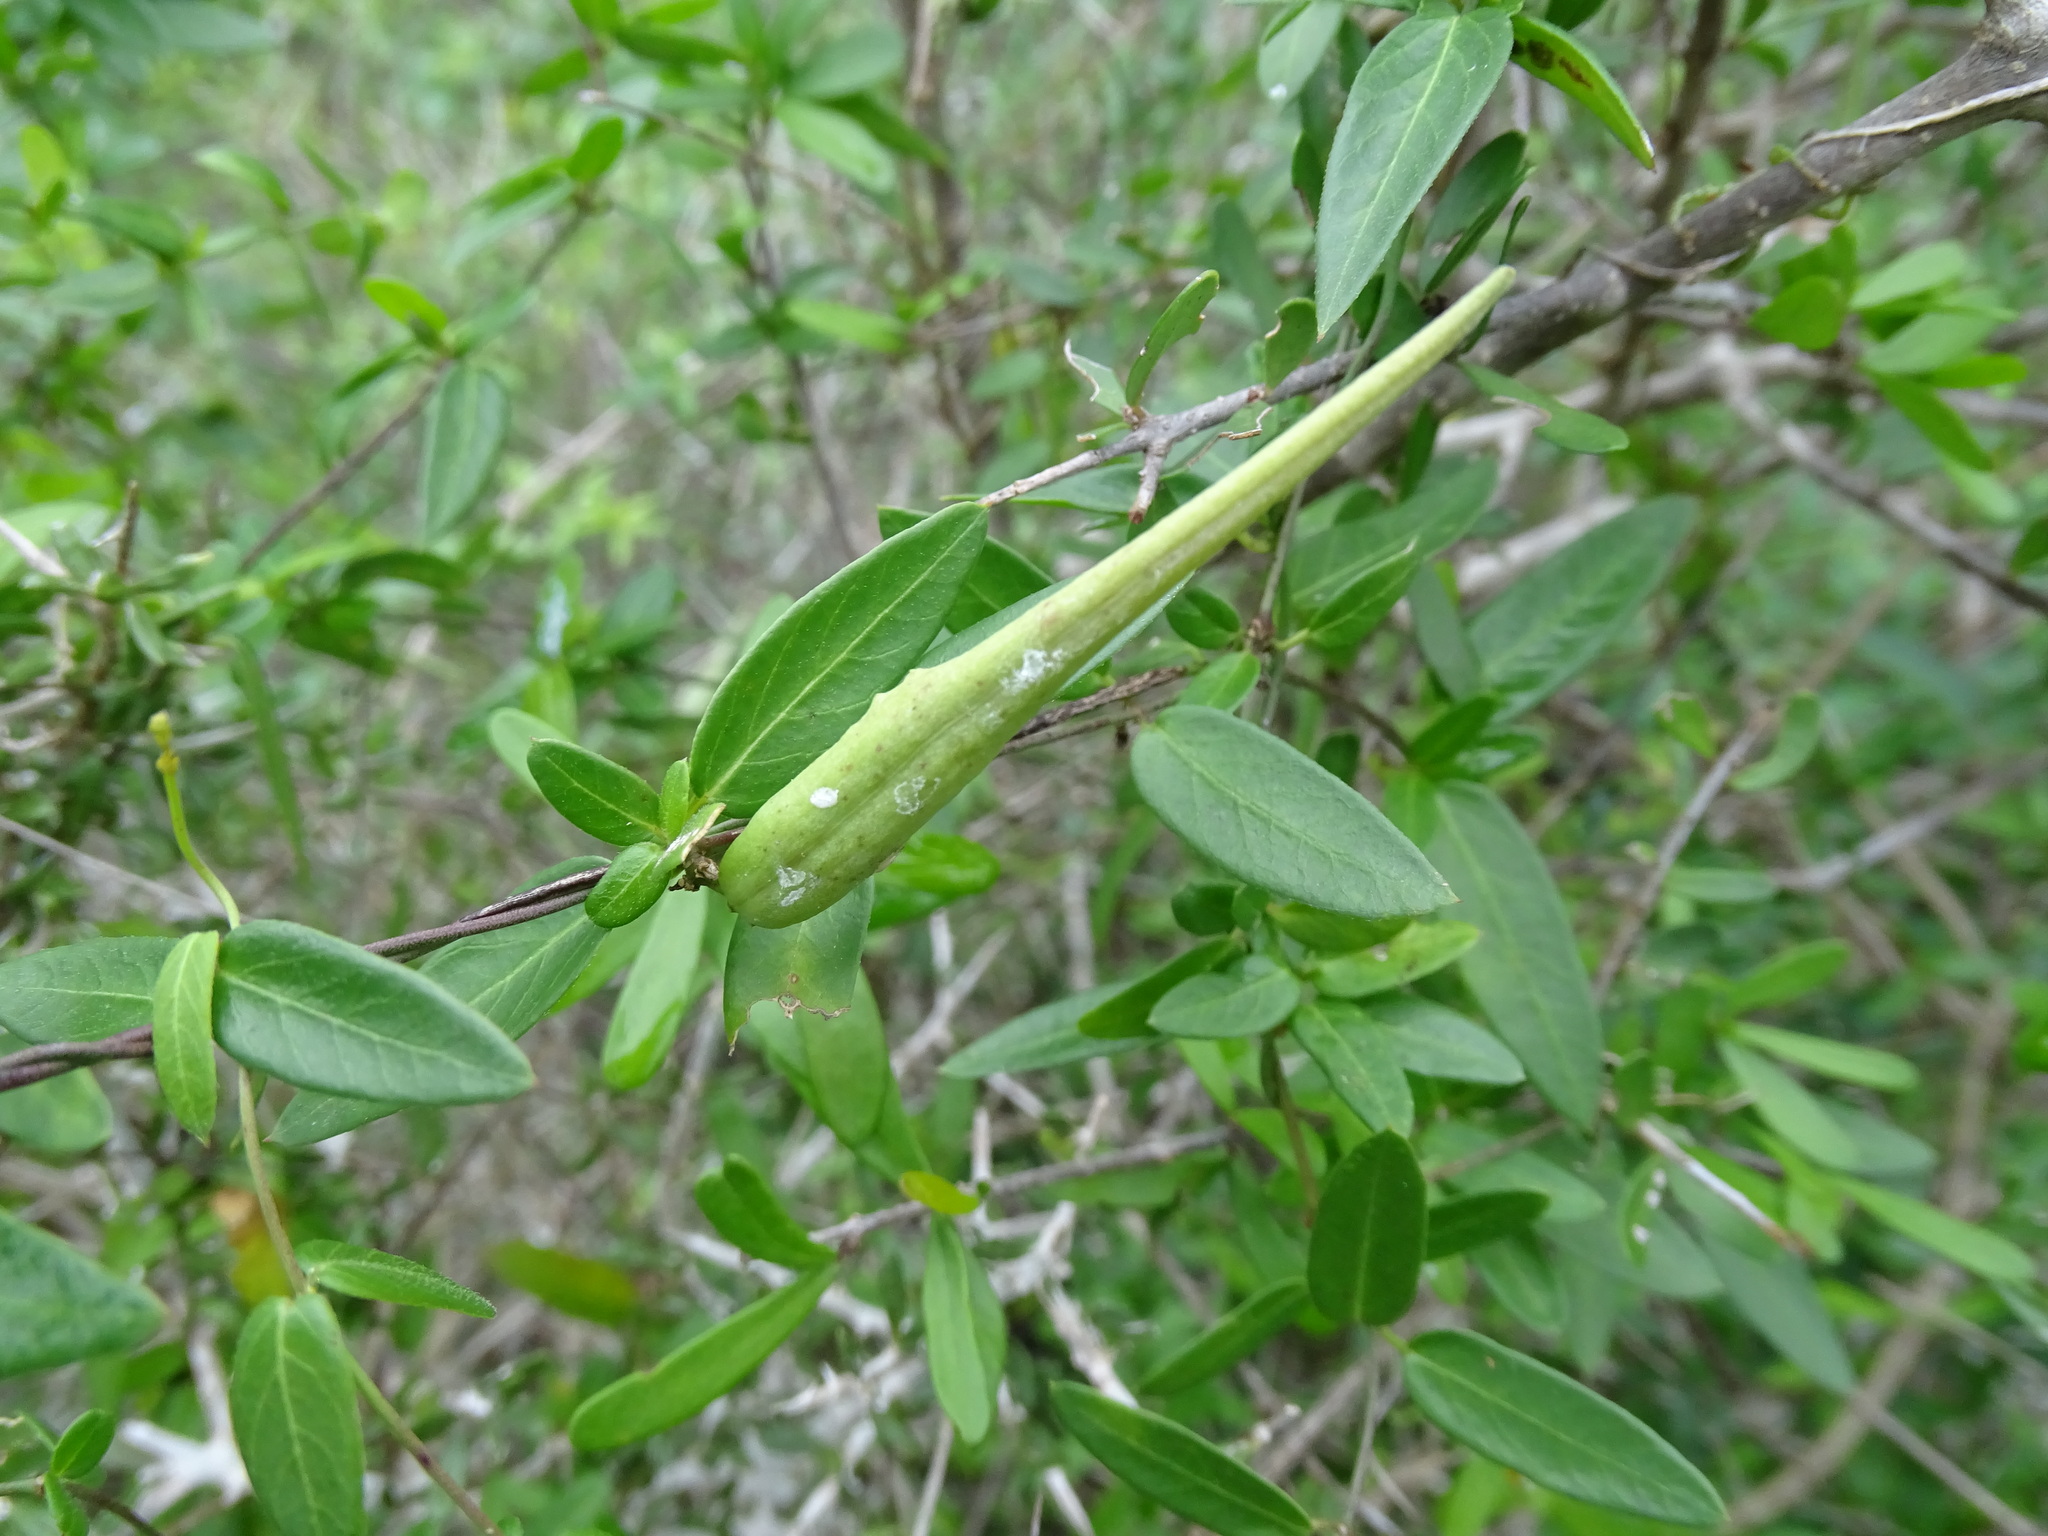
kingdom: Plantae
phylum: Tracheophyta
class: Magnoliopsida
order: Gentianales
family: Apocynaceae
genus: Metastelma
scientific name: Metastelma barbigerum
